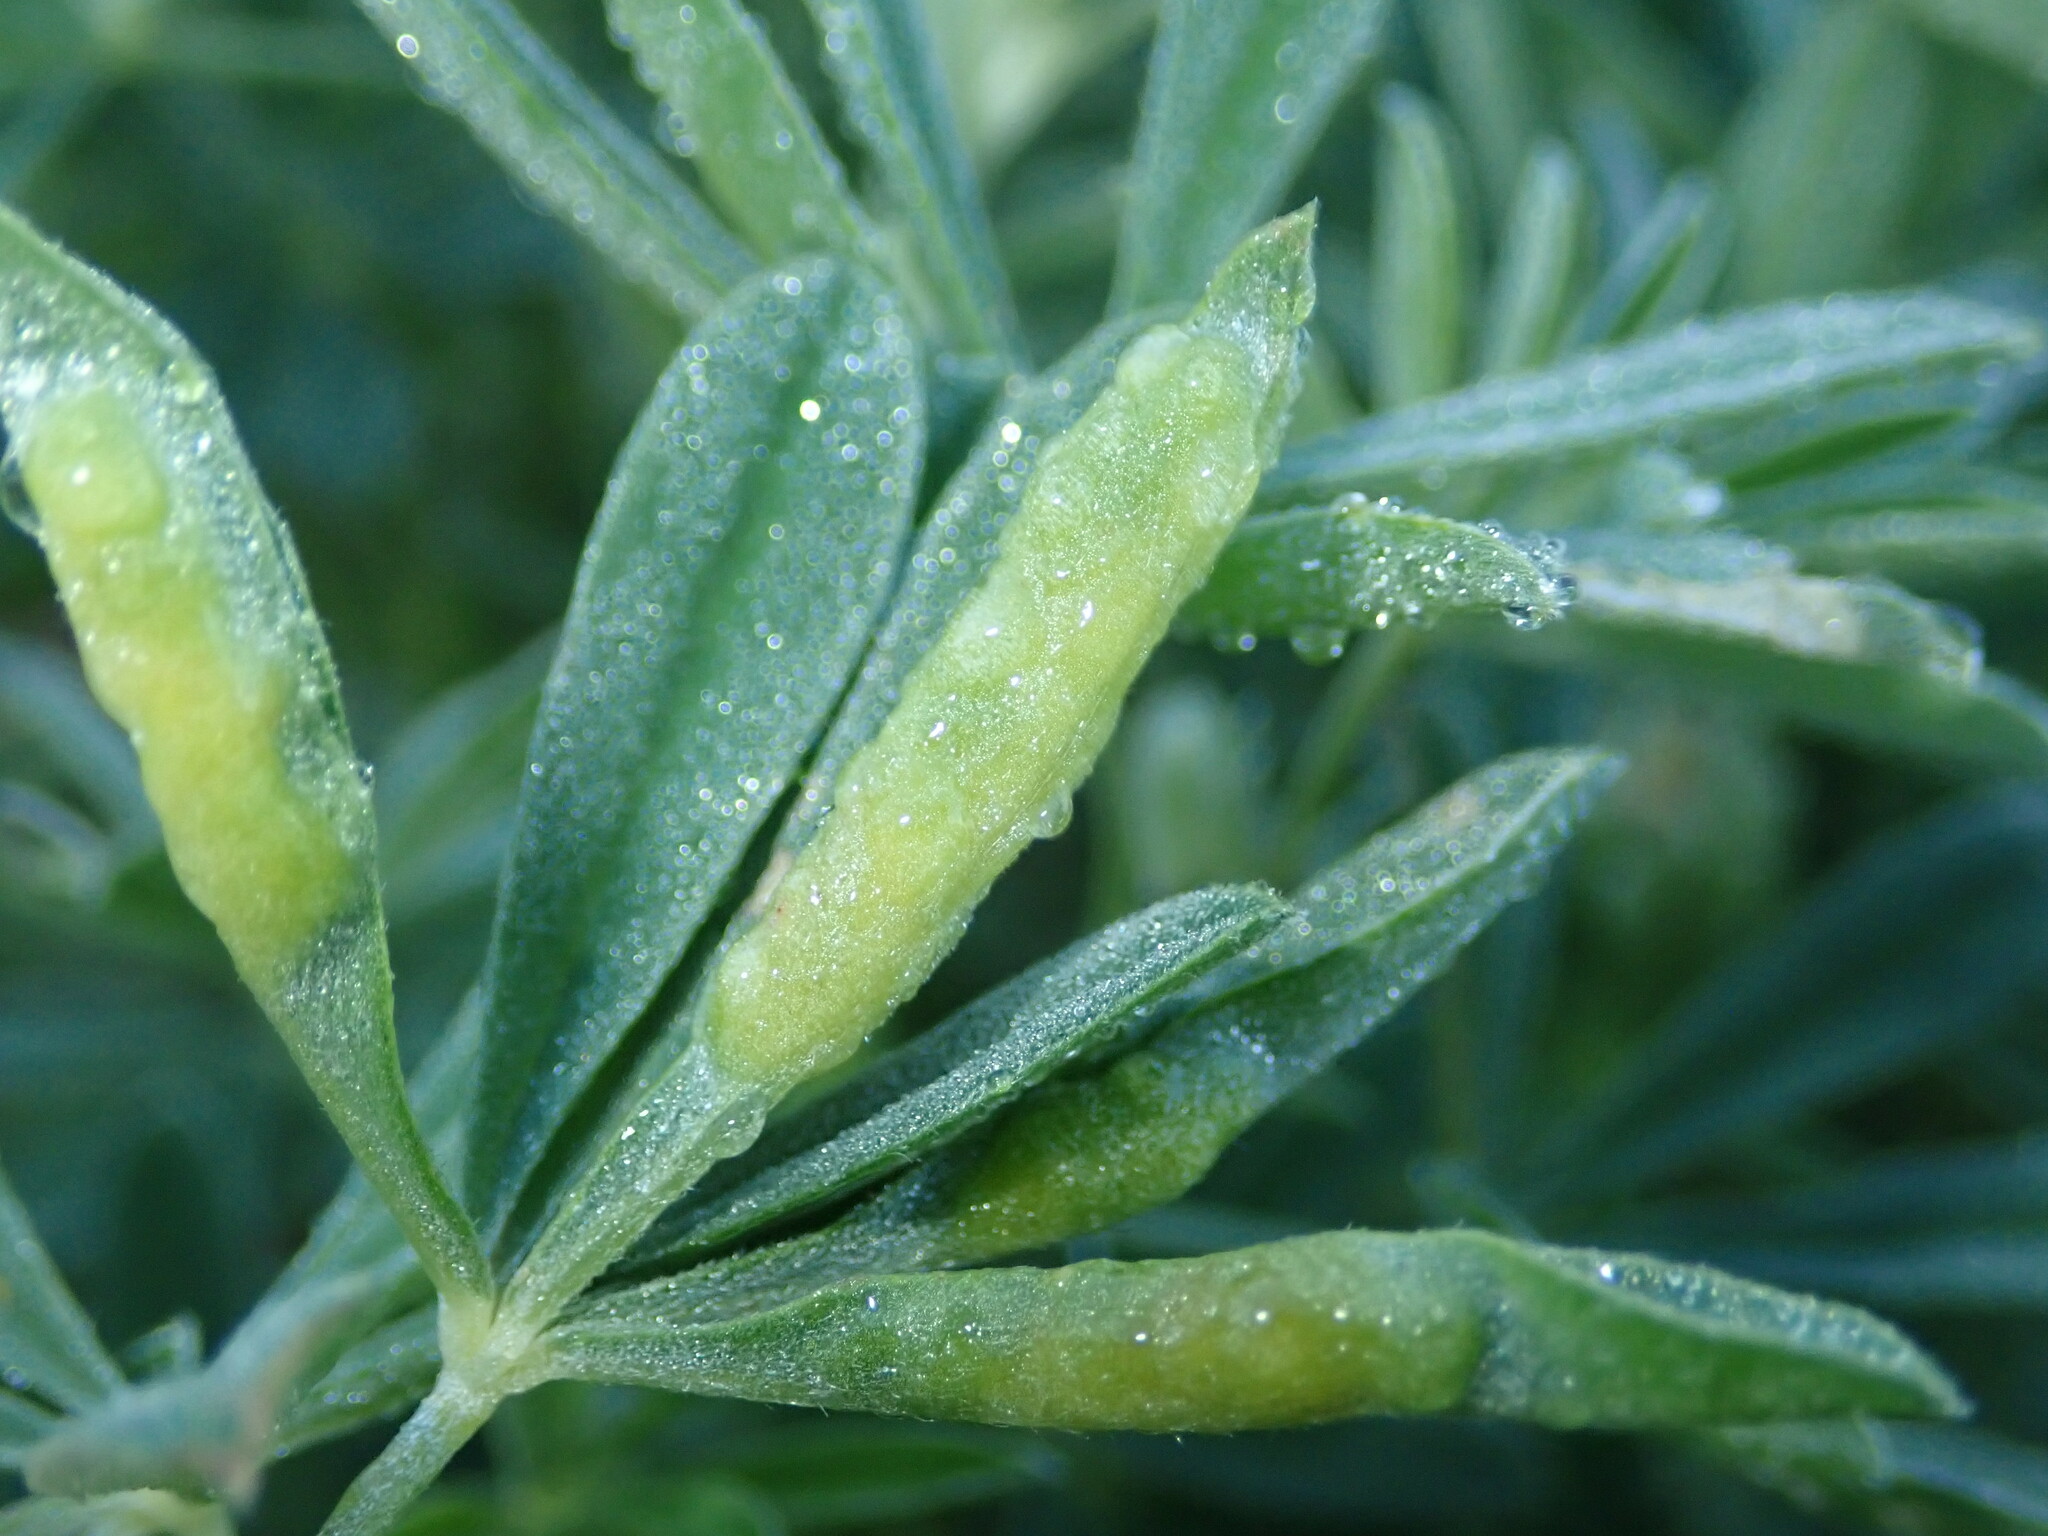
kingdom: Animalia
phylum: Arthropoda
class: Insecta
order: Diptera
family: Cecidomyiidae
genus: Dasineura
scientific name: Dasineura lupinorum
